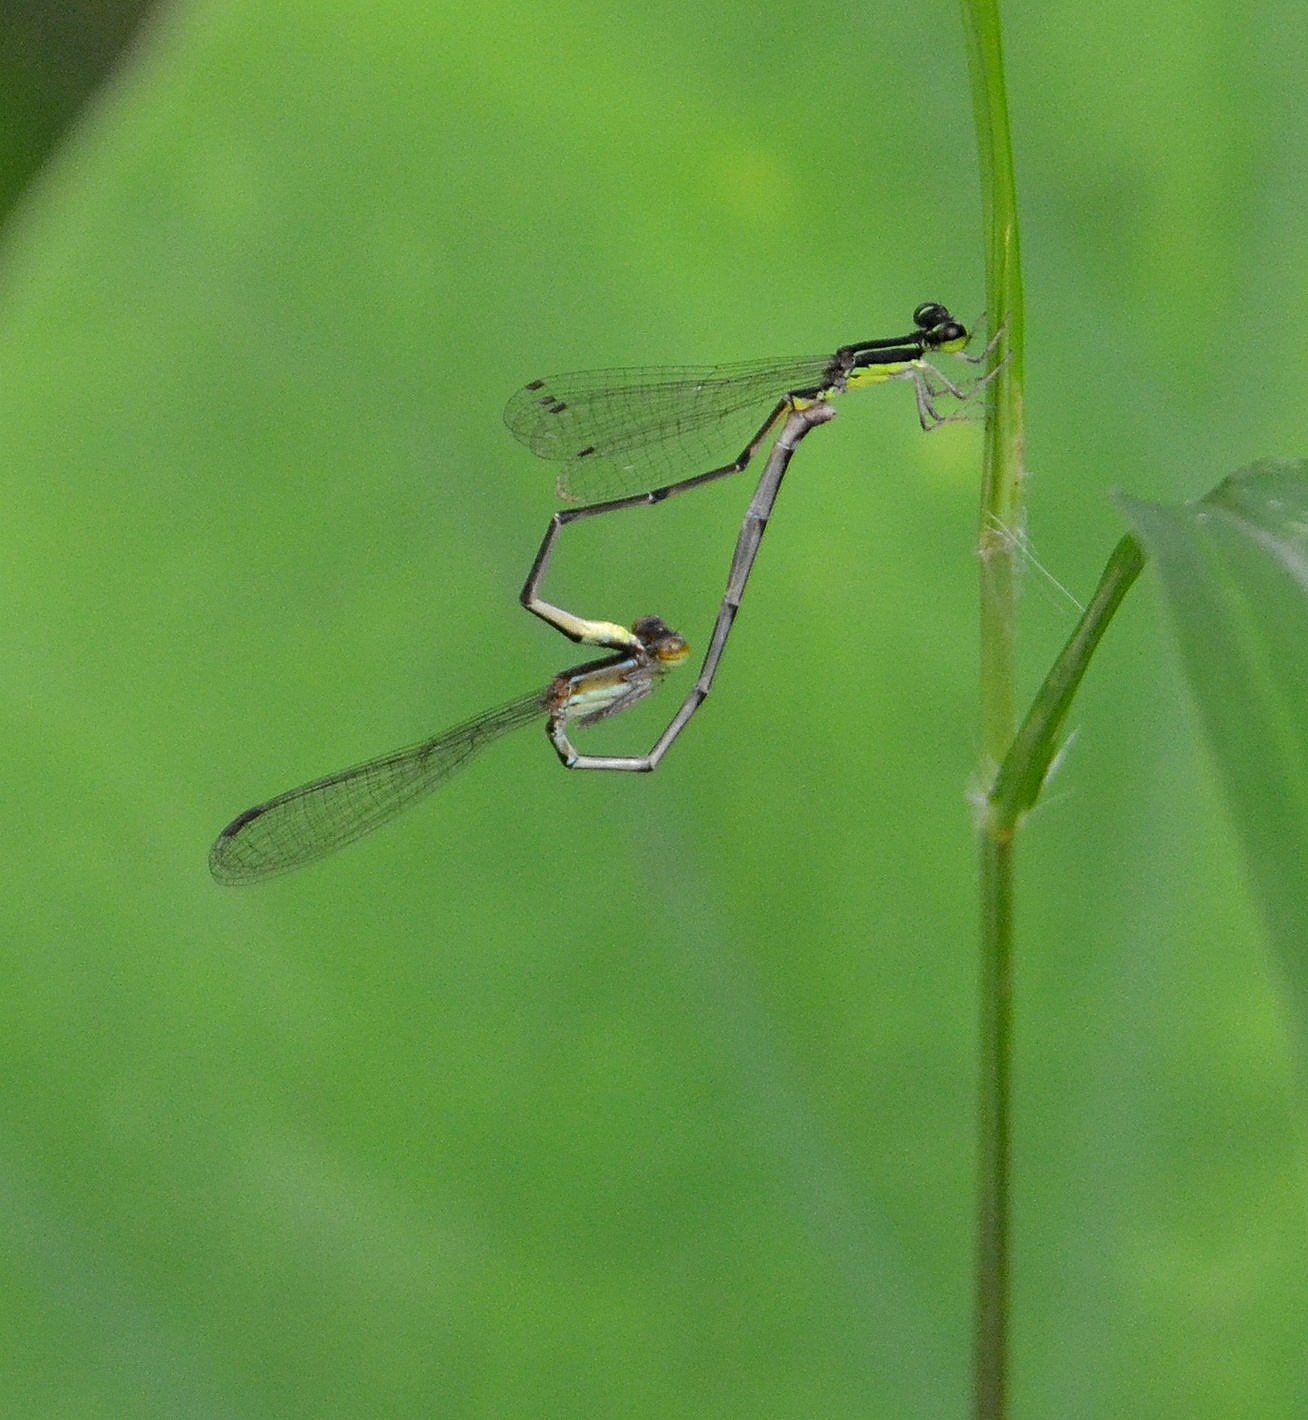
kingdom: Animalia
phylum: Arthropoda
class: Insecta
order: Odonata
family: Coenagrionidae
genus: Mortonagrion
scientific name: Mortonagrion varralli
